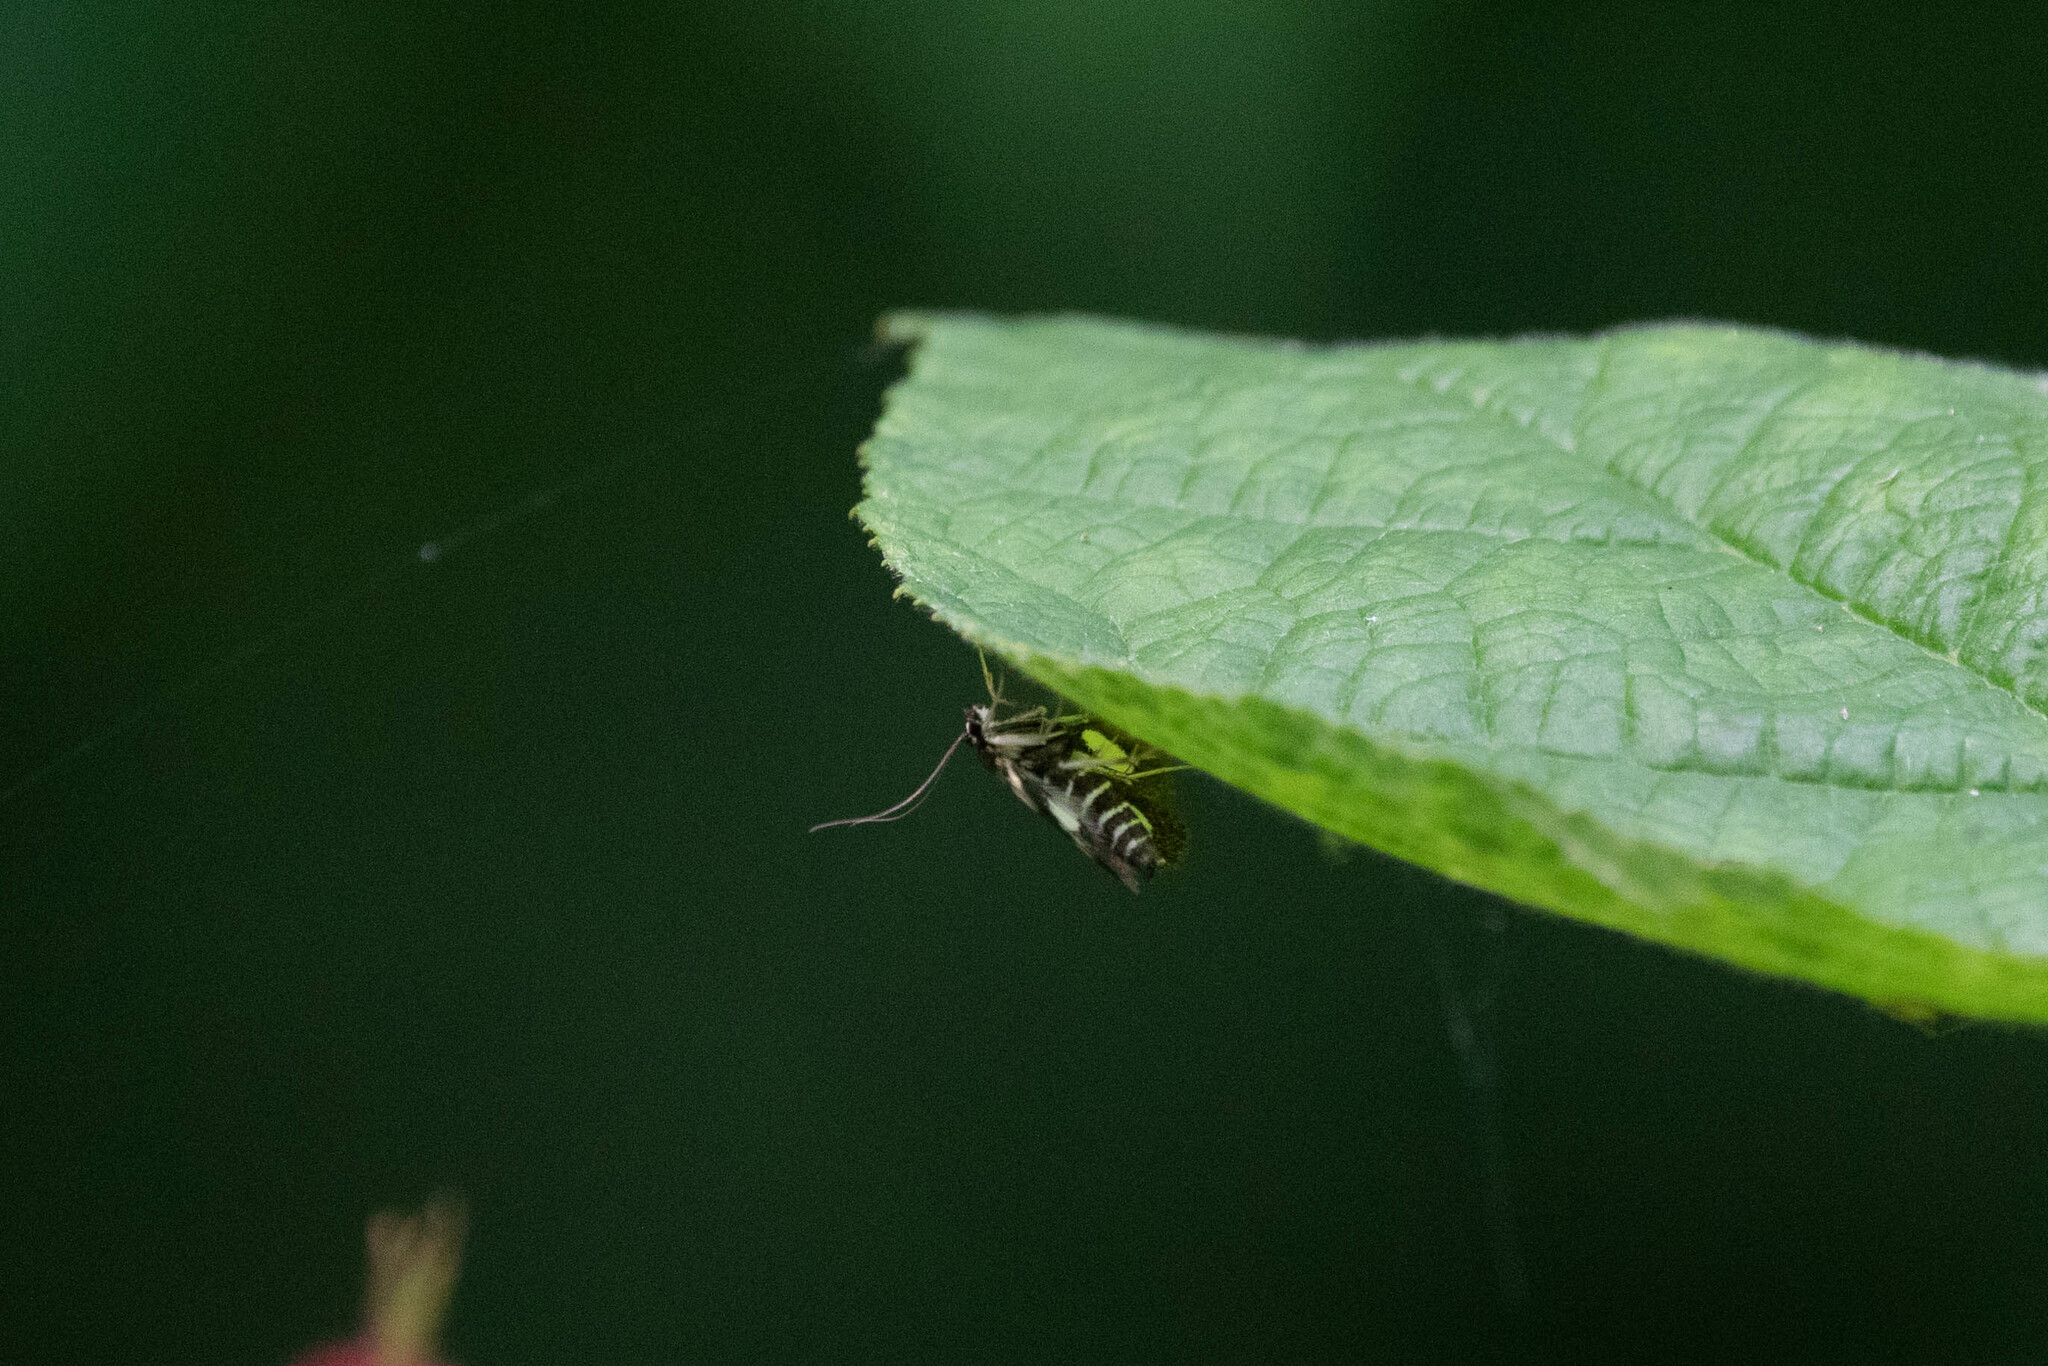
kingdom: Animalia
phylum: Arthropoda
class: Insecta
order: Lepidoptera
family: Crambidae
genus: Anania
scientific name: Anania funebris
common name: White-spotted sable moth
